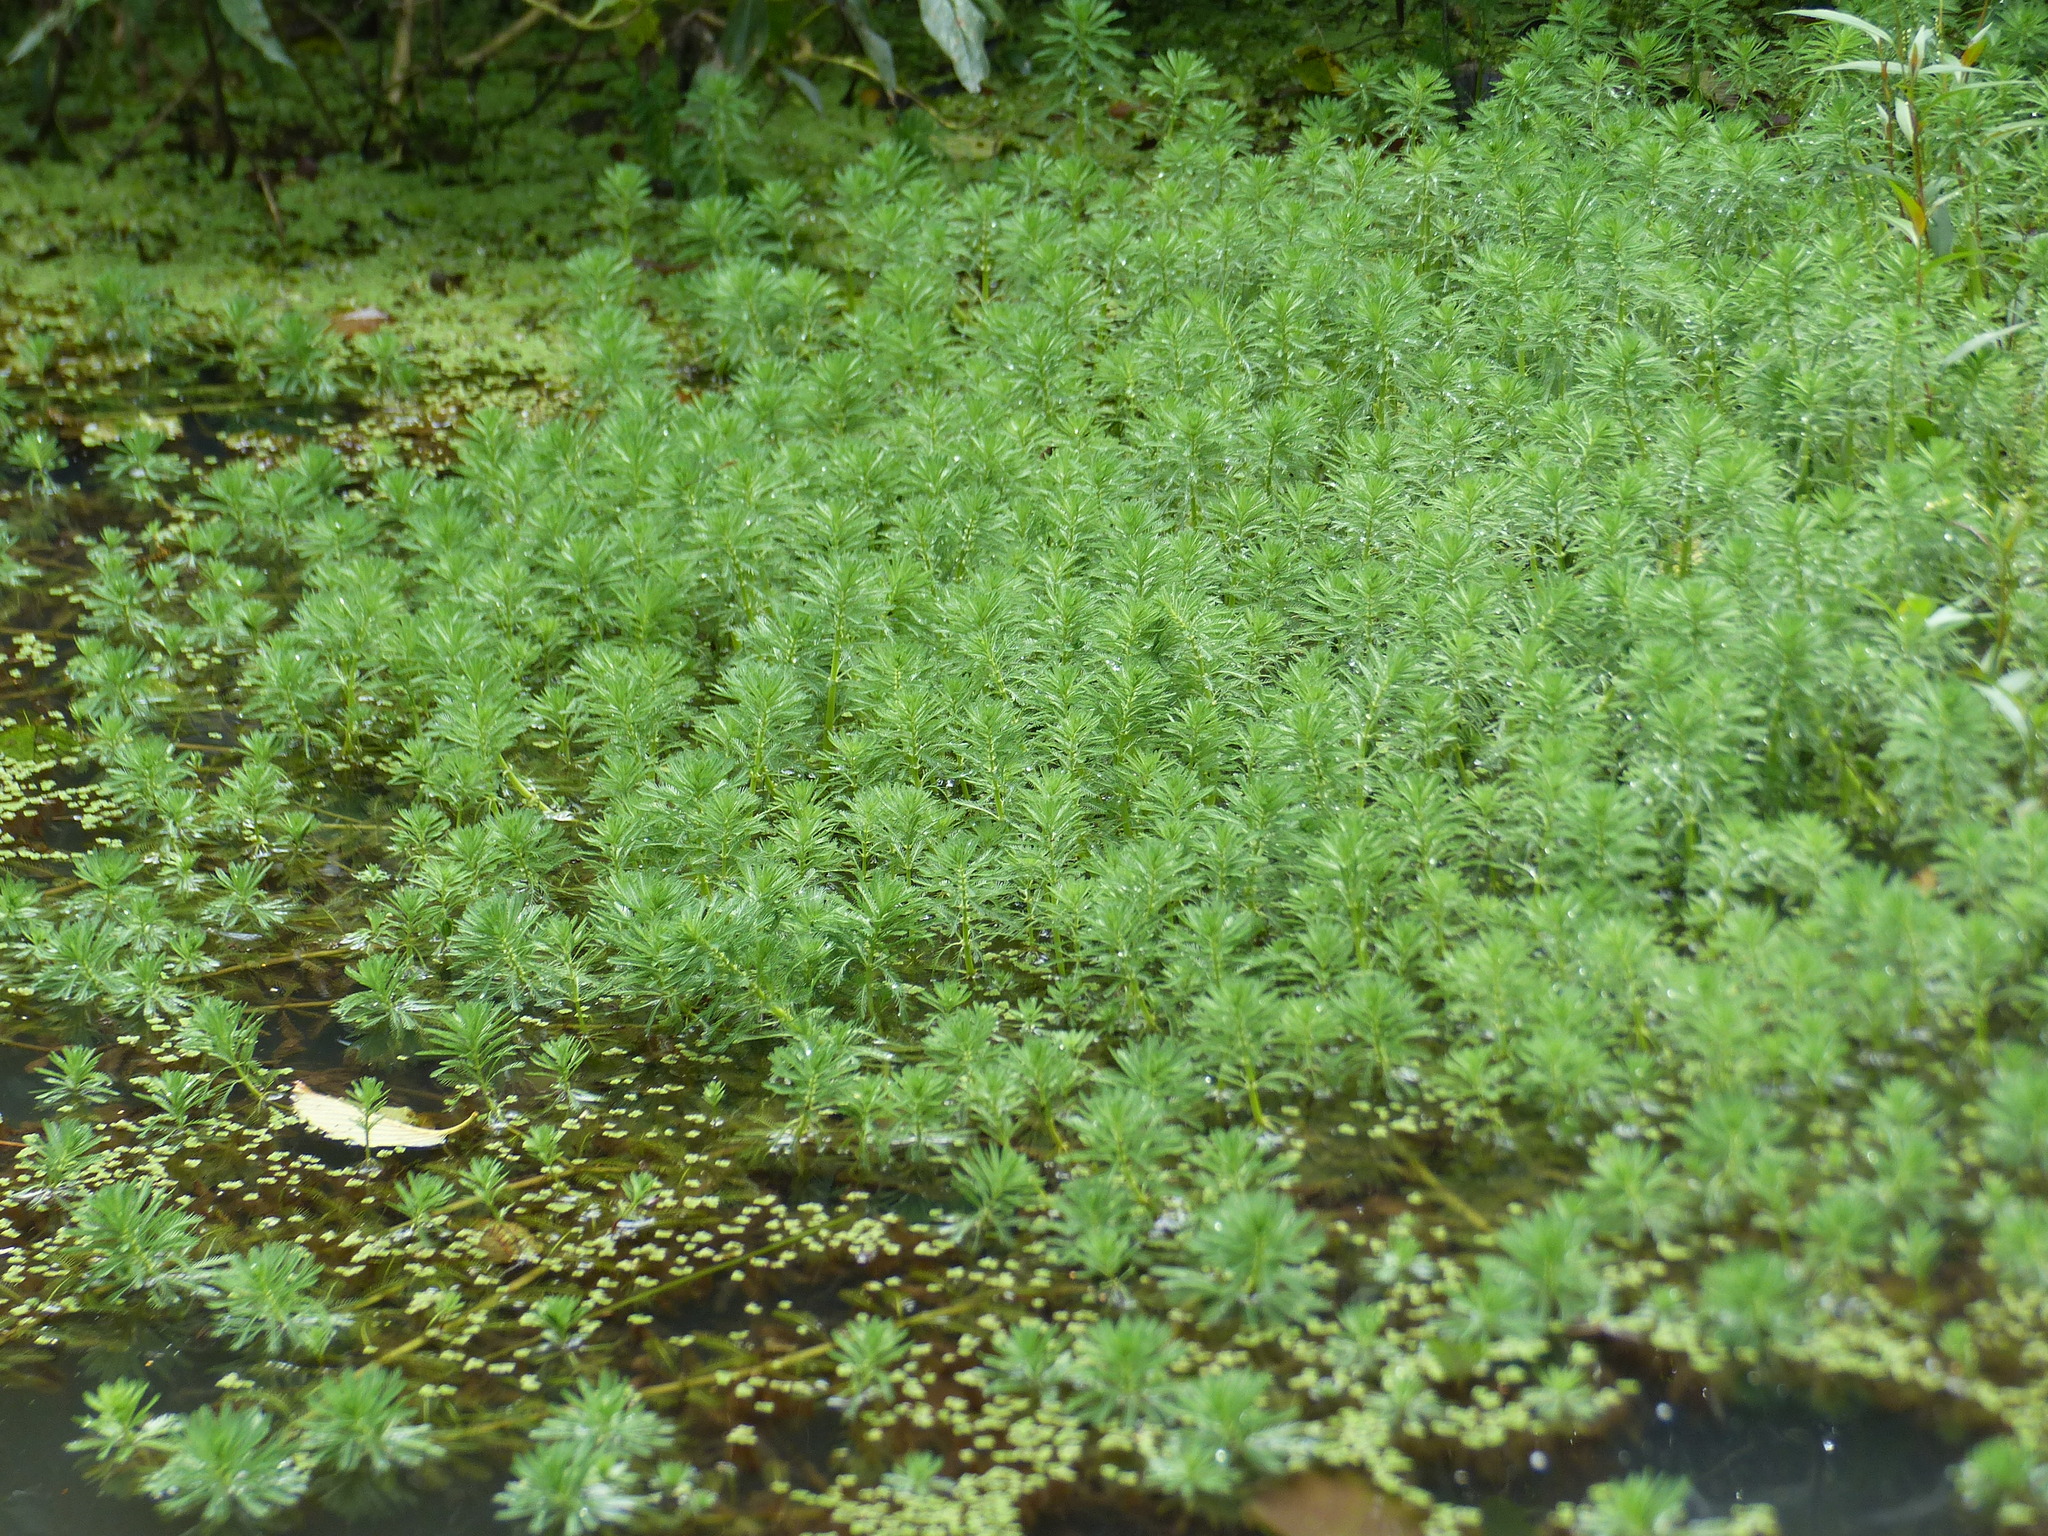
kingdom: Plantae
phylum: Tracheophyta
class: Magnoliopsida
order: Saxifragales
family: Haloragaceae
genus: Myriophyllum
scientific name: Myriophyllum aquaticum
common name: Parrot's feather
